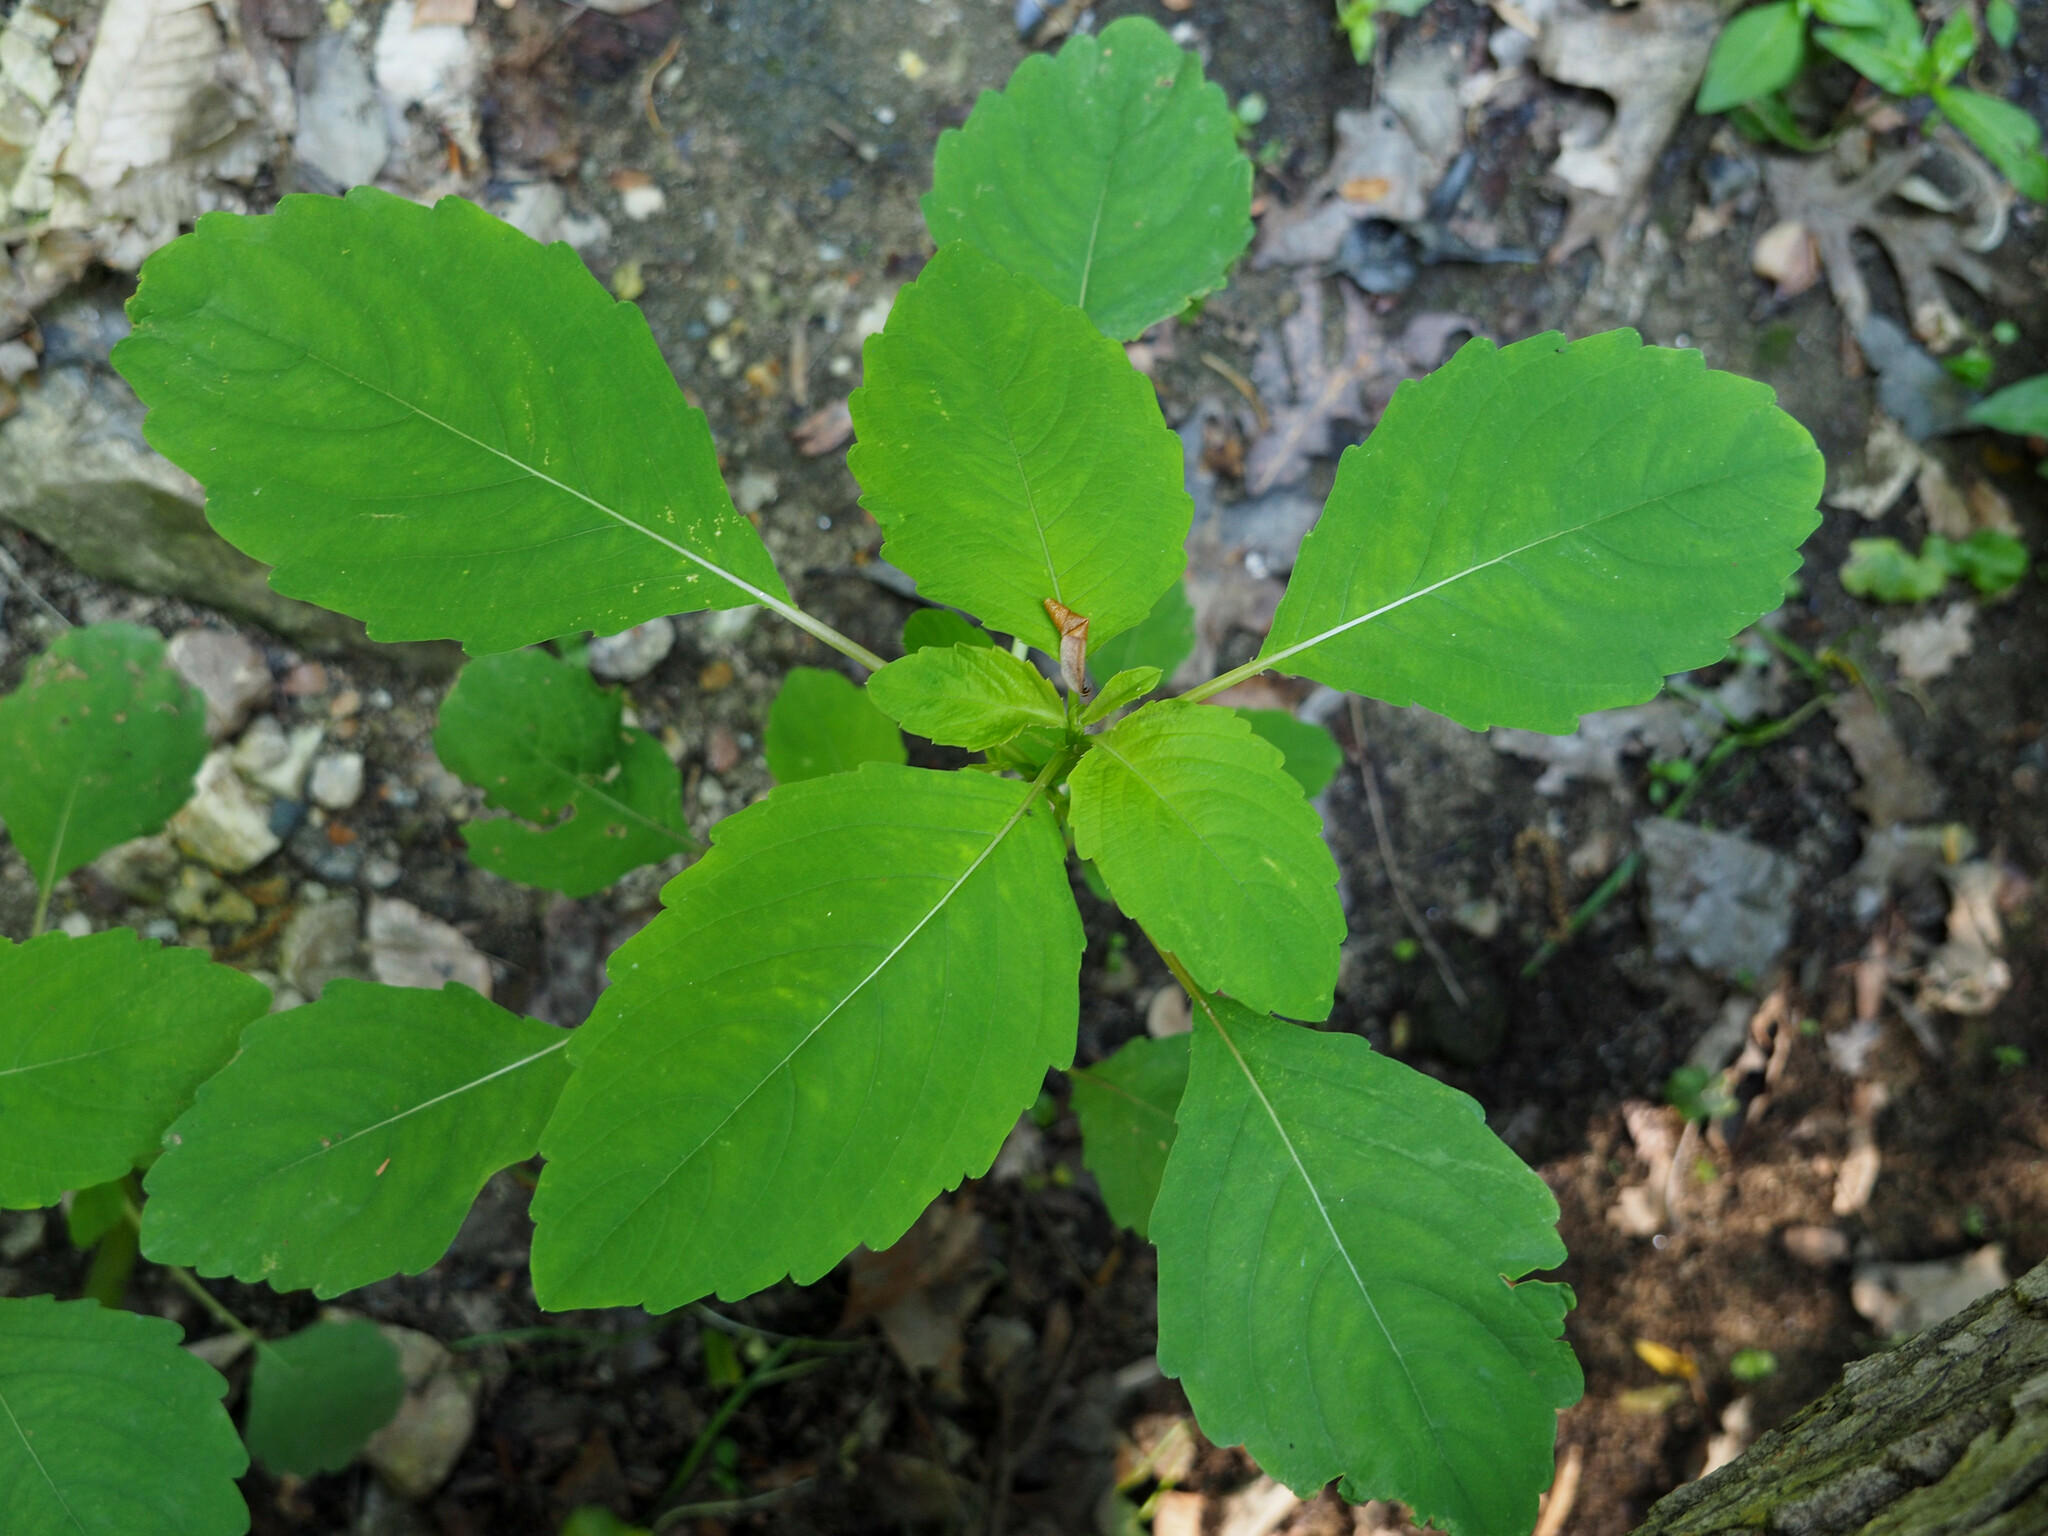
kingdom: Plantae
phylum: Tracheophyta
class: Magnoliopsida
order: Ericales
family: Balsaminaceae
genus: Impatiens
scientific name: Impatiens
